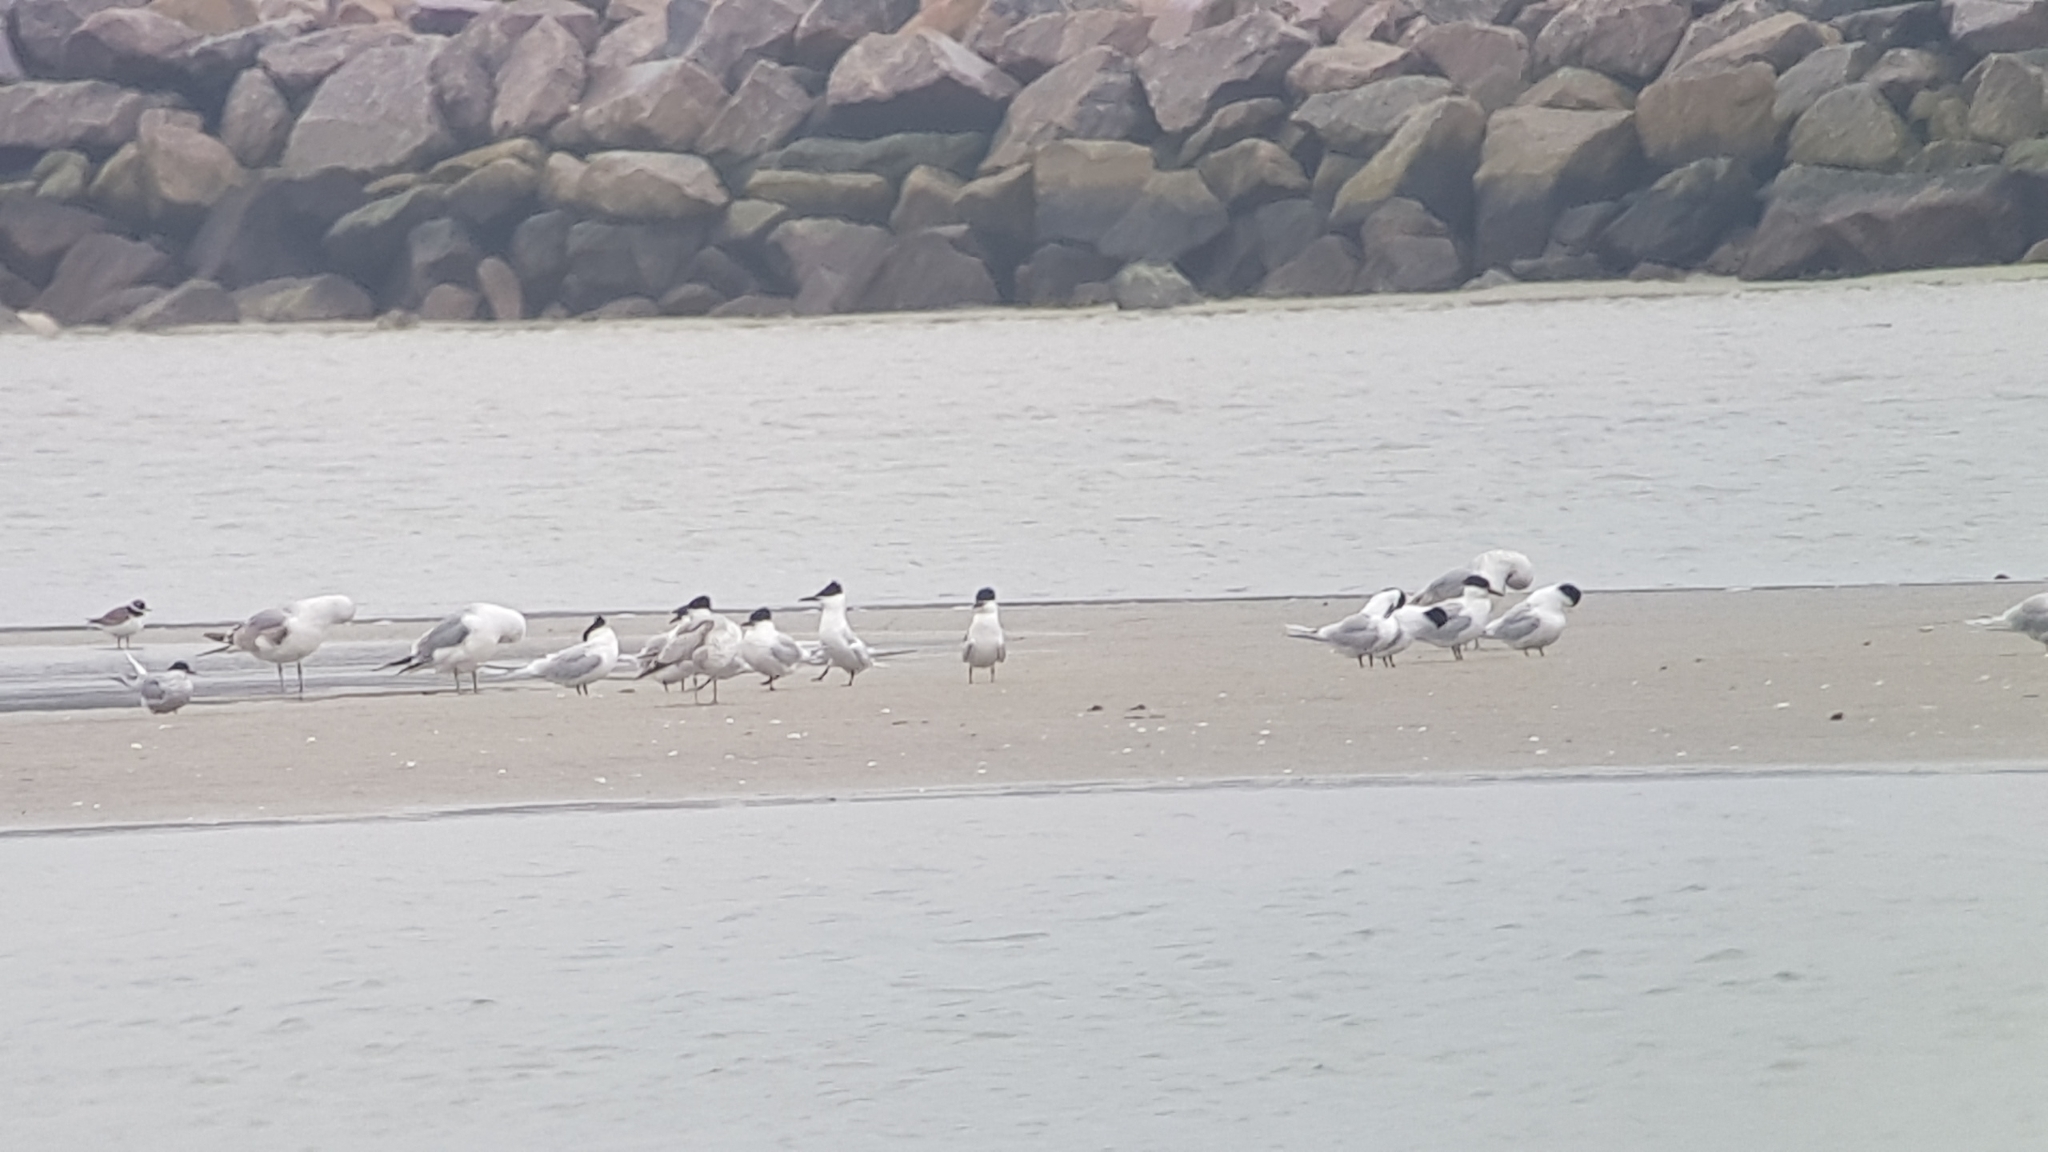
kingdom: Animalia
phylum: Chordata
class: Aves
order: Charadriiformes
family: Laridae
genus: Thalasseus
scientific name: Thalasseus sandvicensis
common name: Sandwich tern
